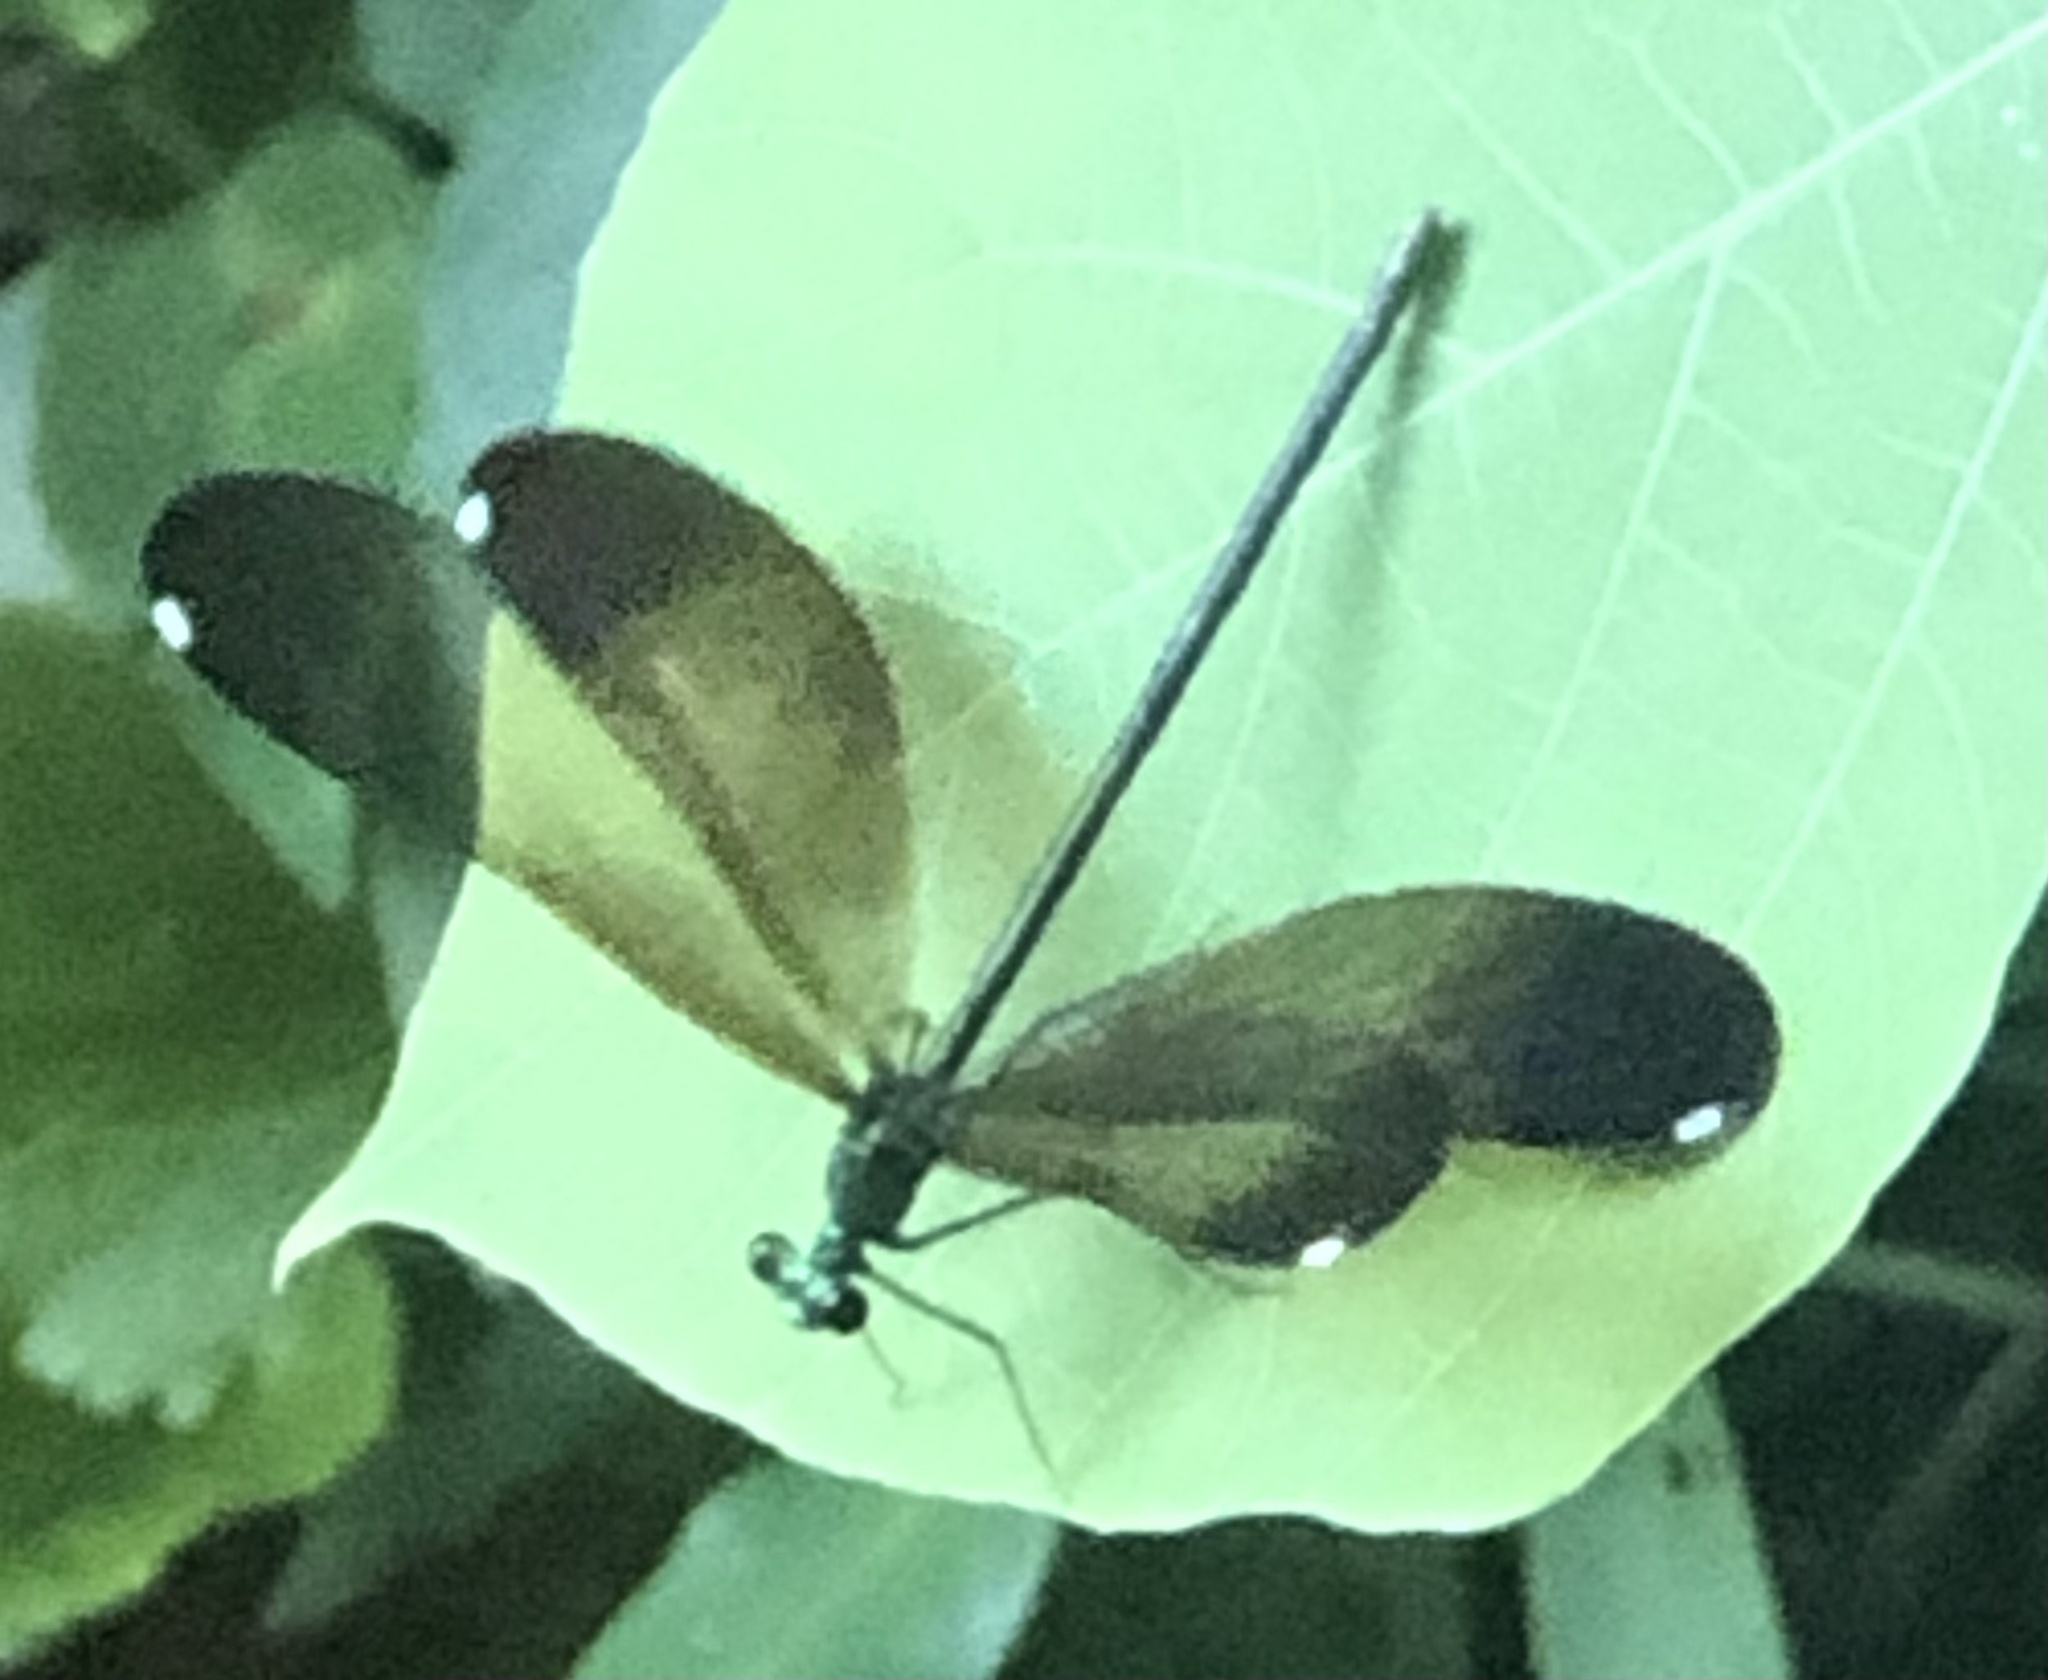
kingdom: Animalia
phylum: Arthropoda
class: Insecta
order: Odonata
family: Calopterygidae
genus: Calopteryx
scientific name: Calopteryx maculata
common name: Ebony jewelwing
